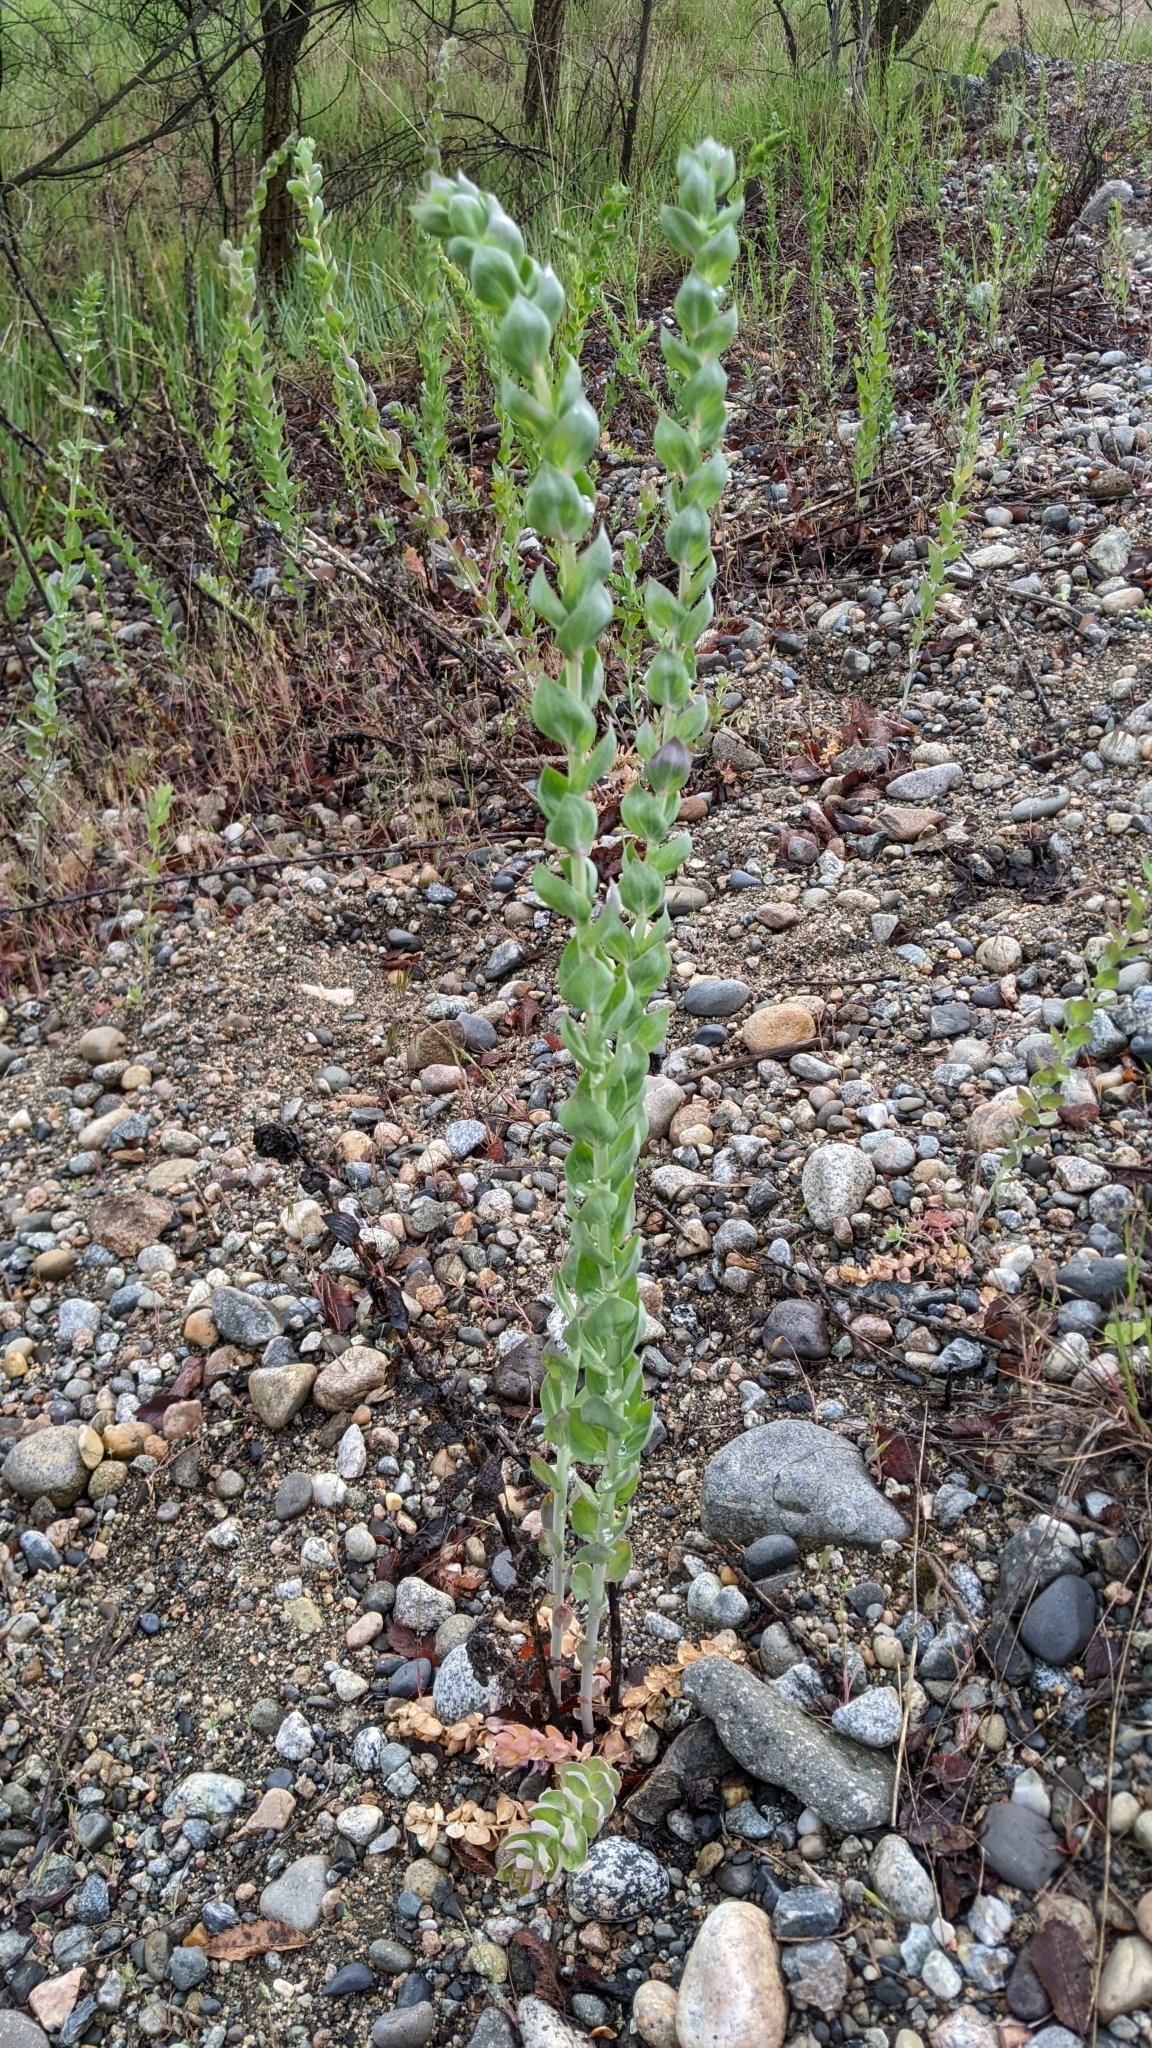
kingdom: Plantae
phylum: Tracheophyta
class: Magnoliopsida
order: Lamiales
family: Plantaginaceae
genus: Linaria
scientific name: Linaria dalmatica
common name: Dalmatian toadflax
